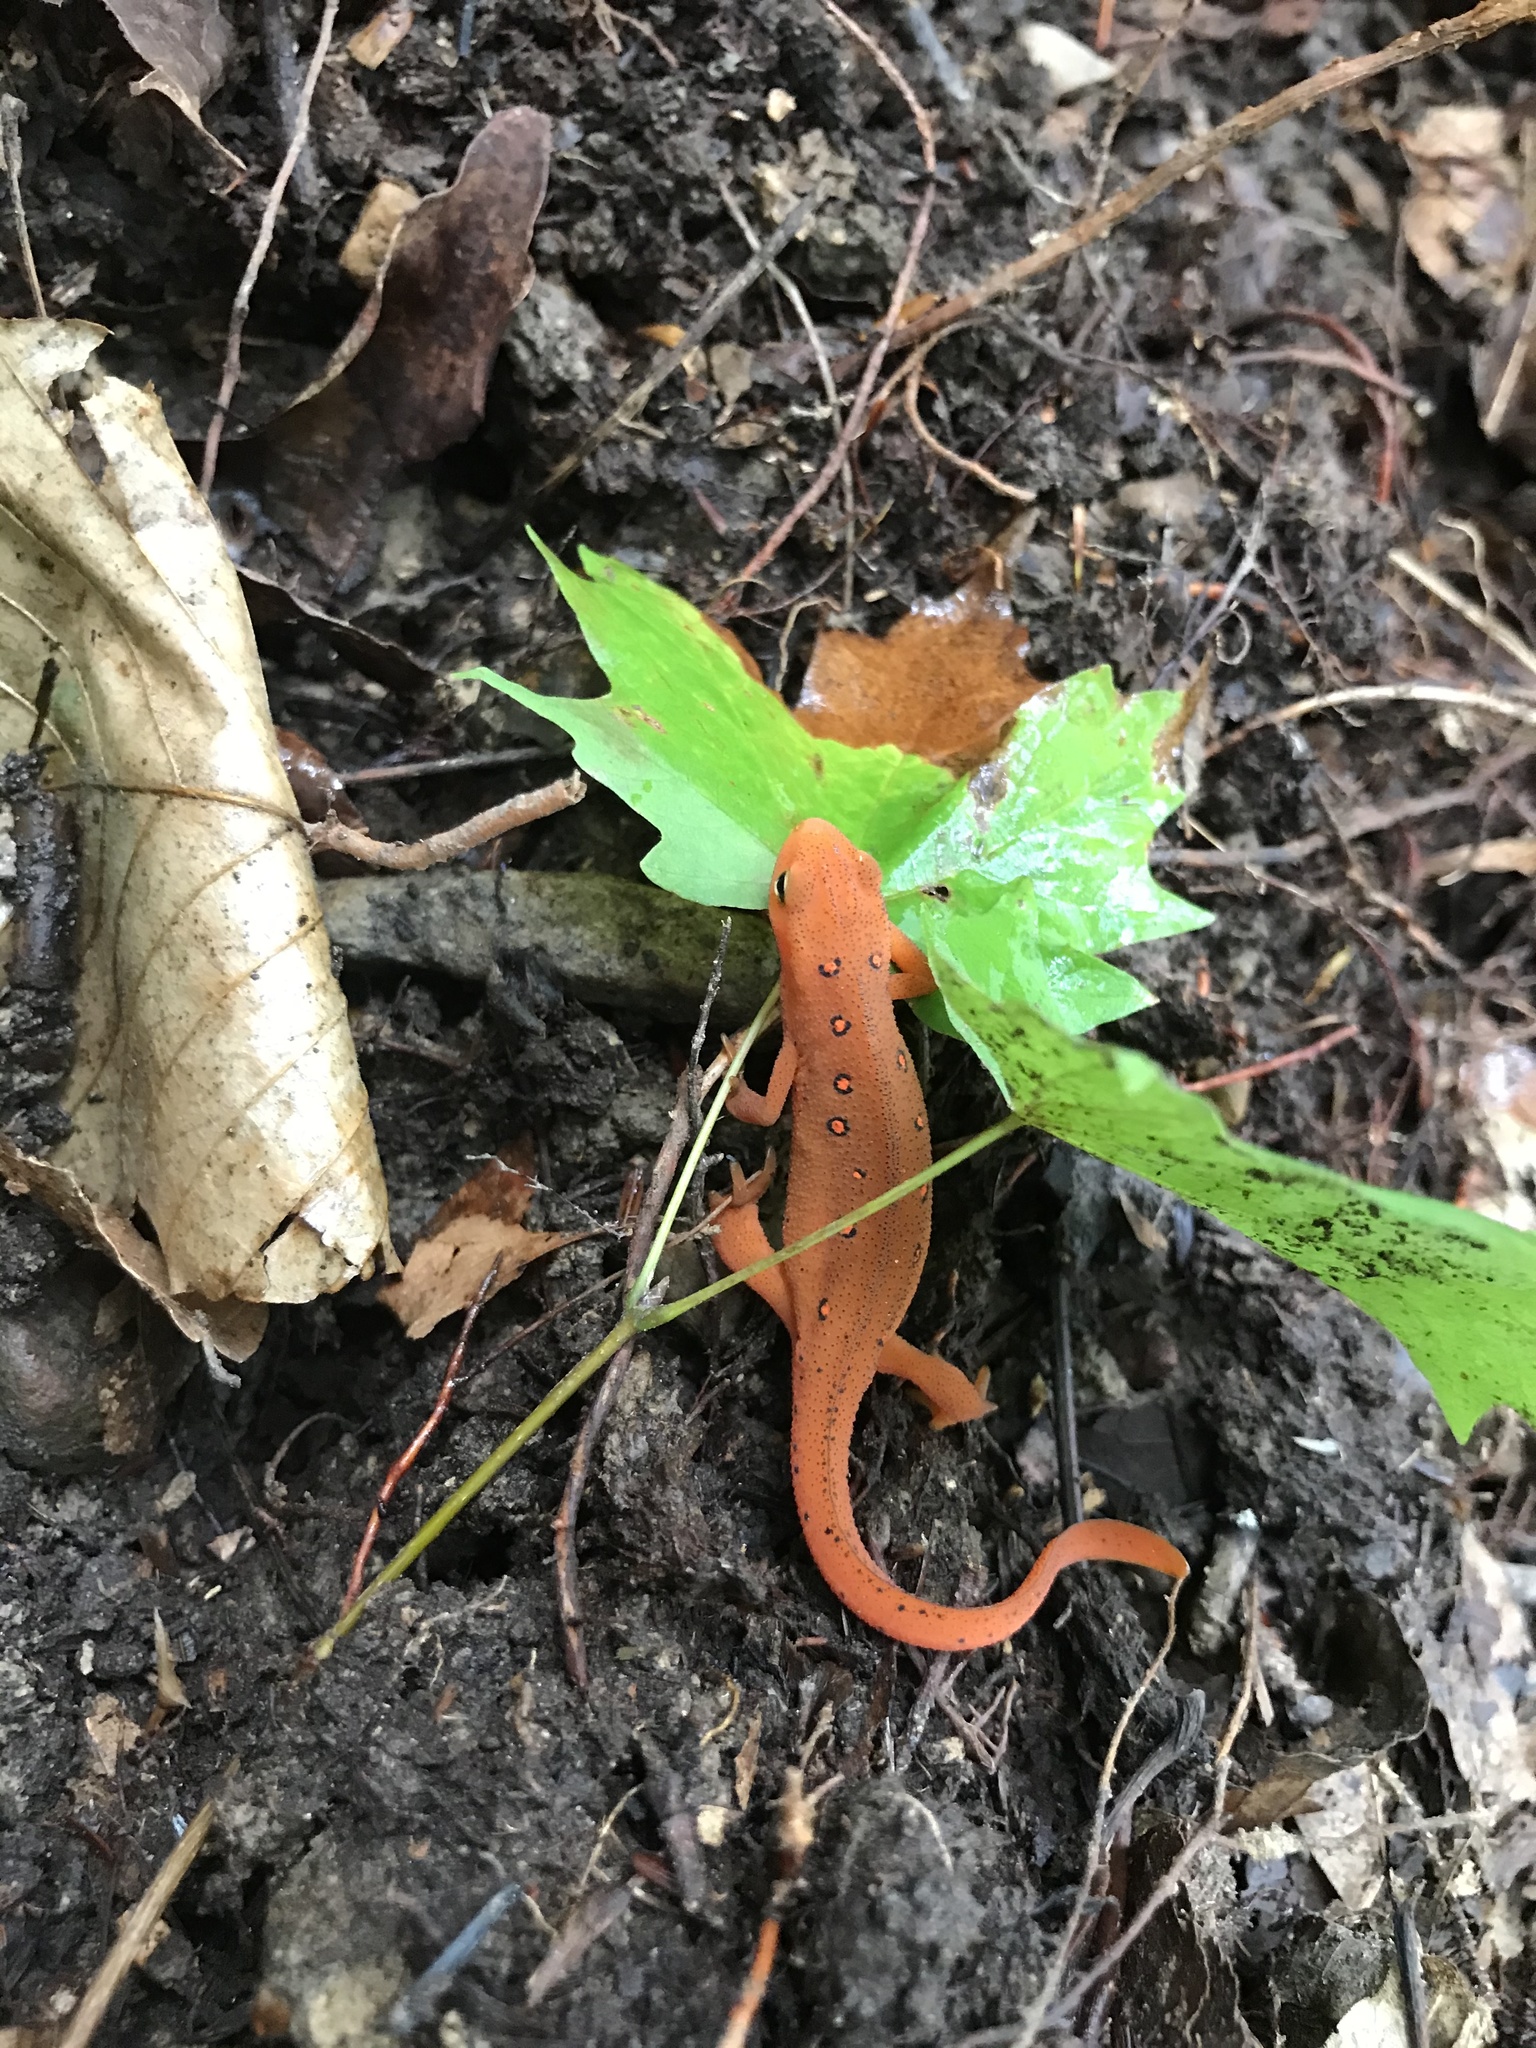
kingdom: Animalia
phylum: Chordata
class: Amphibia
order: Caudata
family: Salamandridae
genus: Notophthalmus
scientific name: Notophthalmus viridescens
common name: Eastern newt
